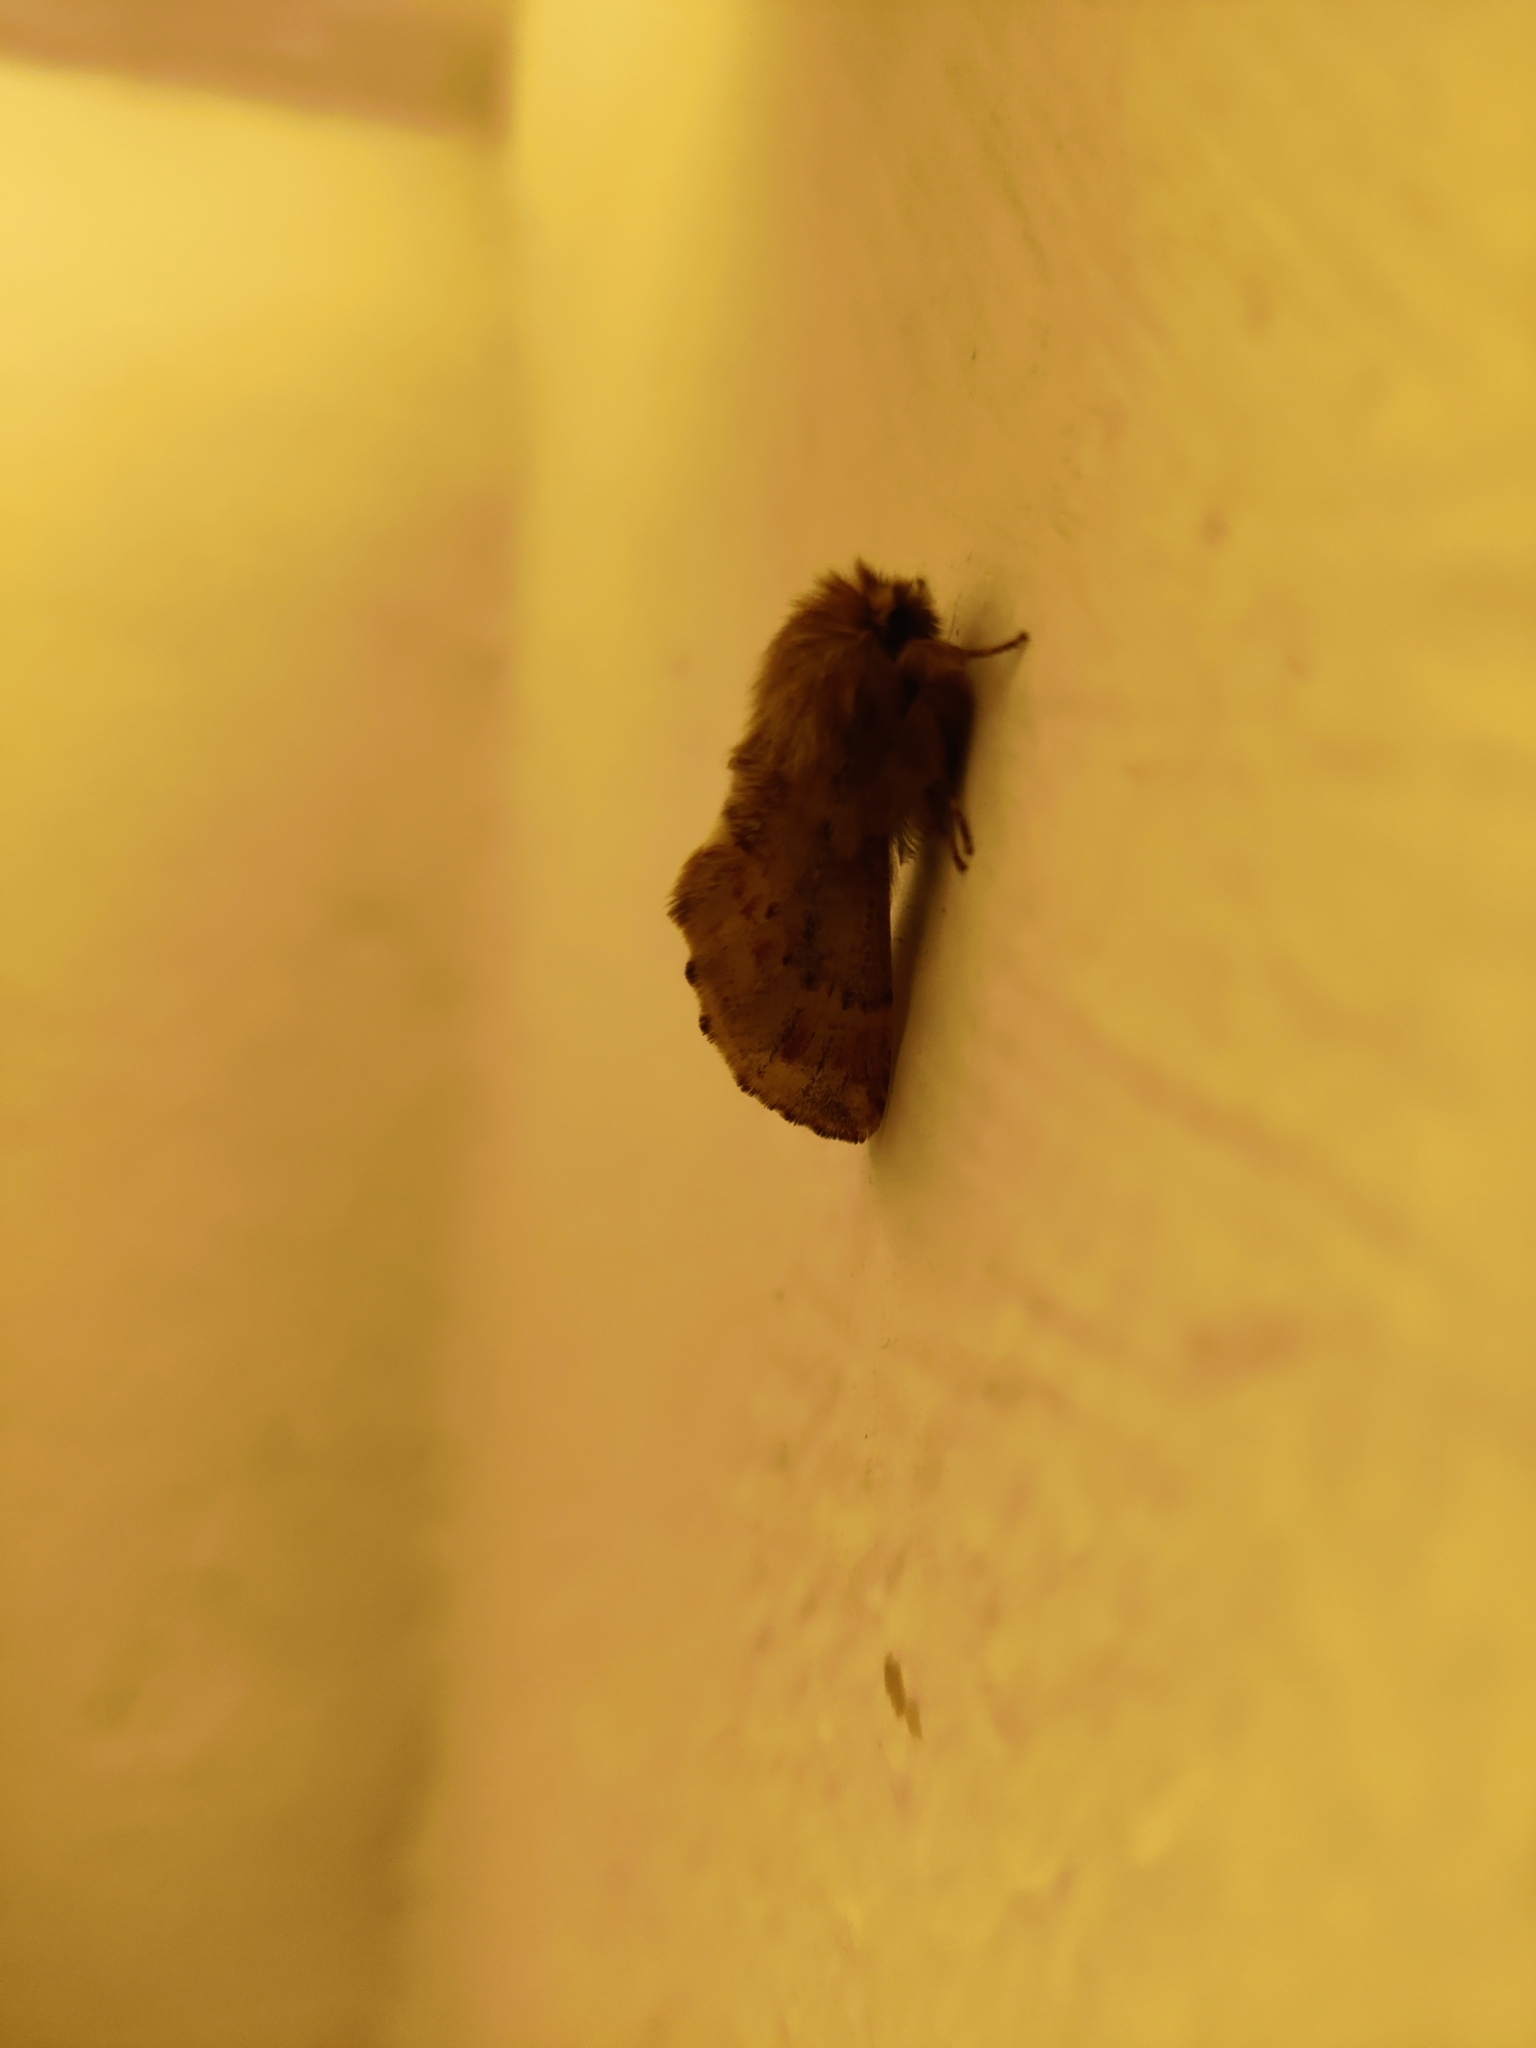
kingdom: Animalia
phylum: Arthropoda
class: Insecta
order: Lepidoptera
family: Notodontidae
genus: Ptilophora
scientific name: Ptilophora plumigera
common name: Plumed prominent
